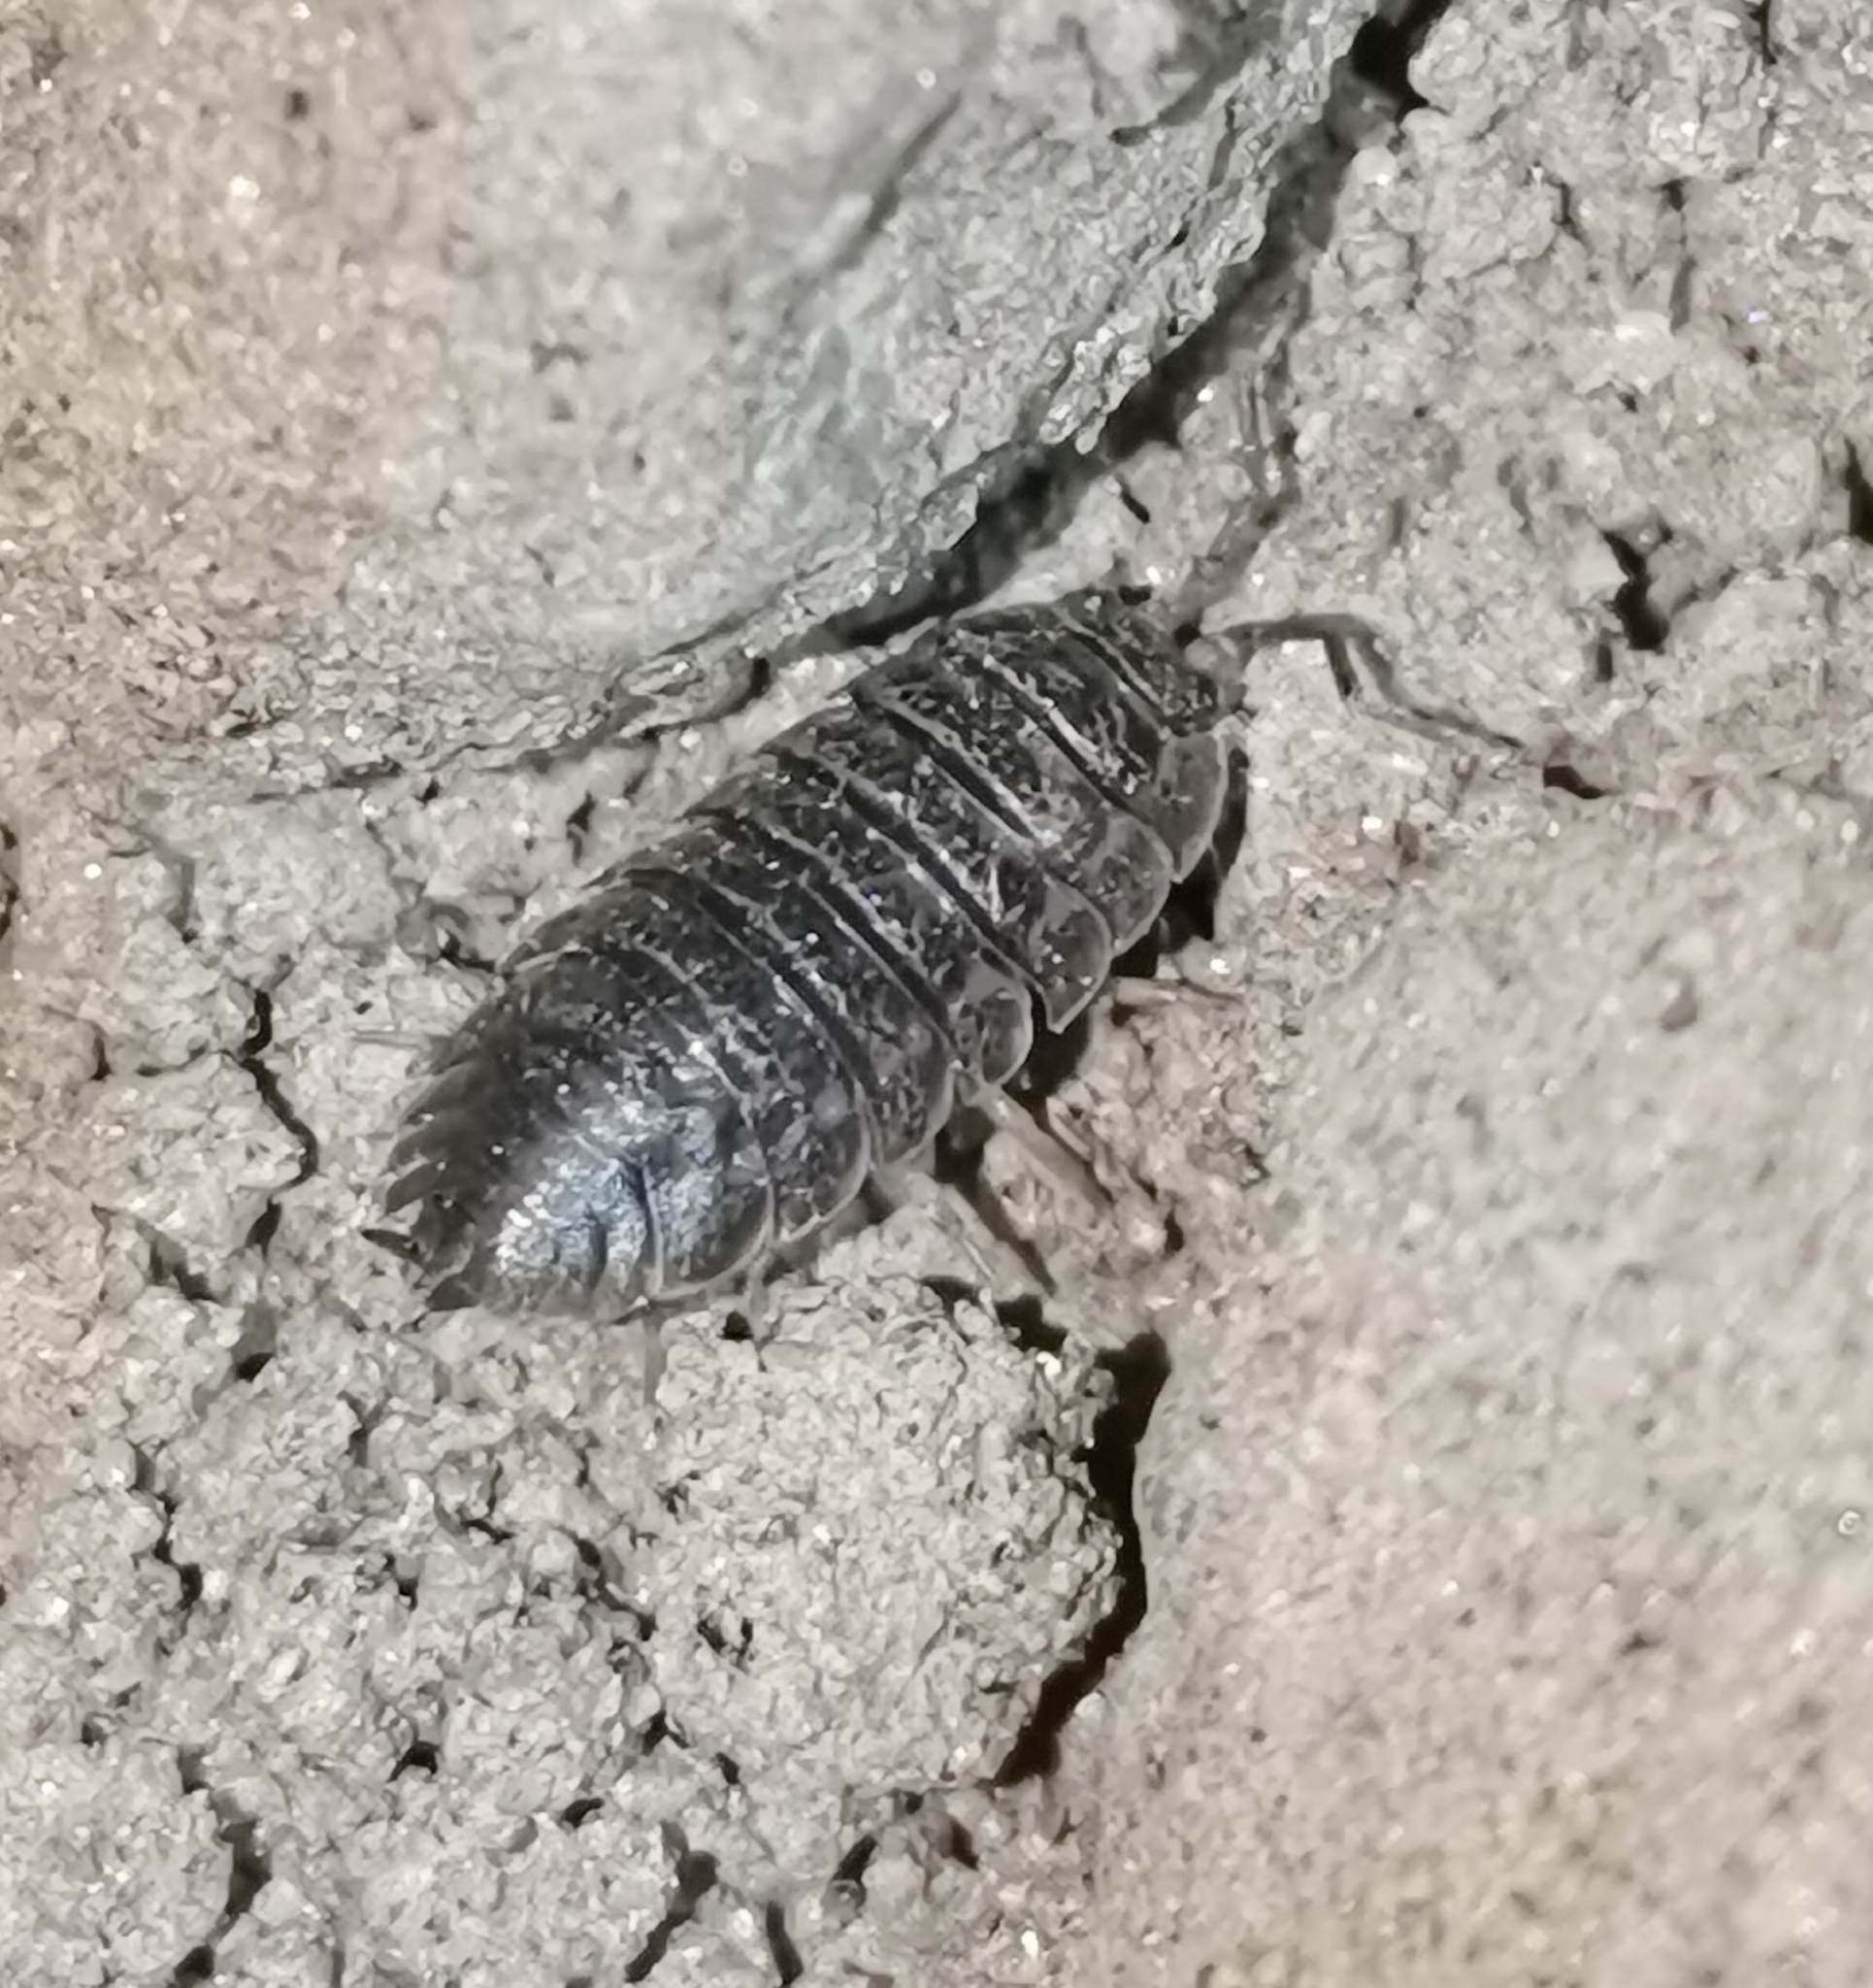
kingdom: Animalia
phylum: Arthropoda
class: Malacostraca
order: Isopoda
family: Trachelipodidae
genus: Trachelipus
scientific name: Trachelipus rathkii
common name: Isopod
